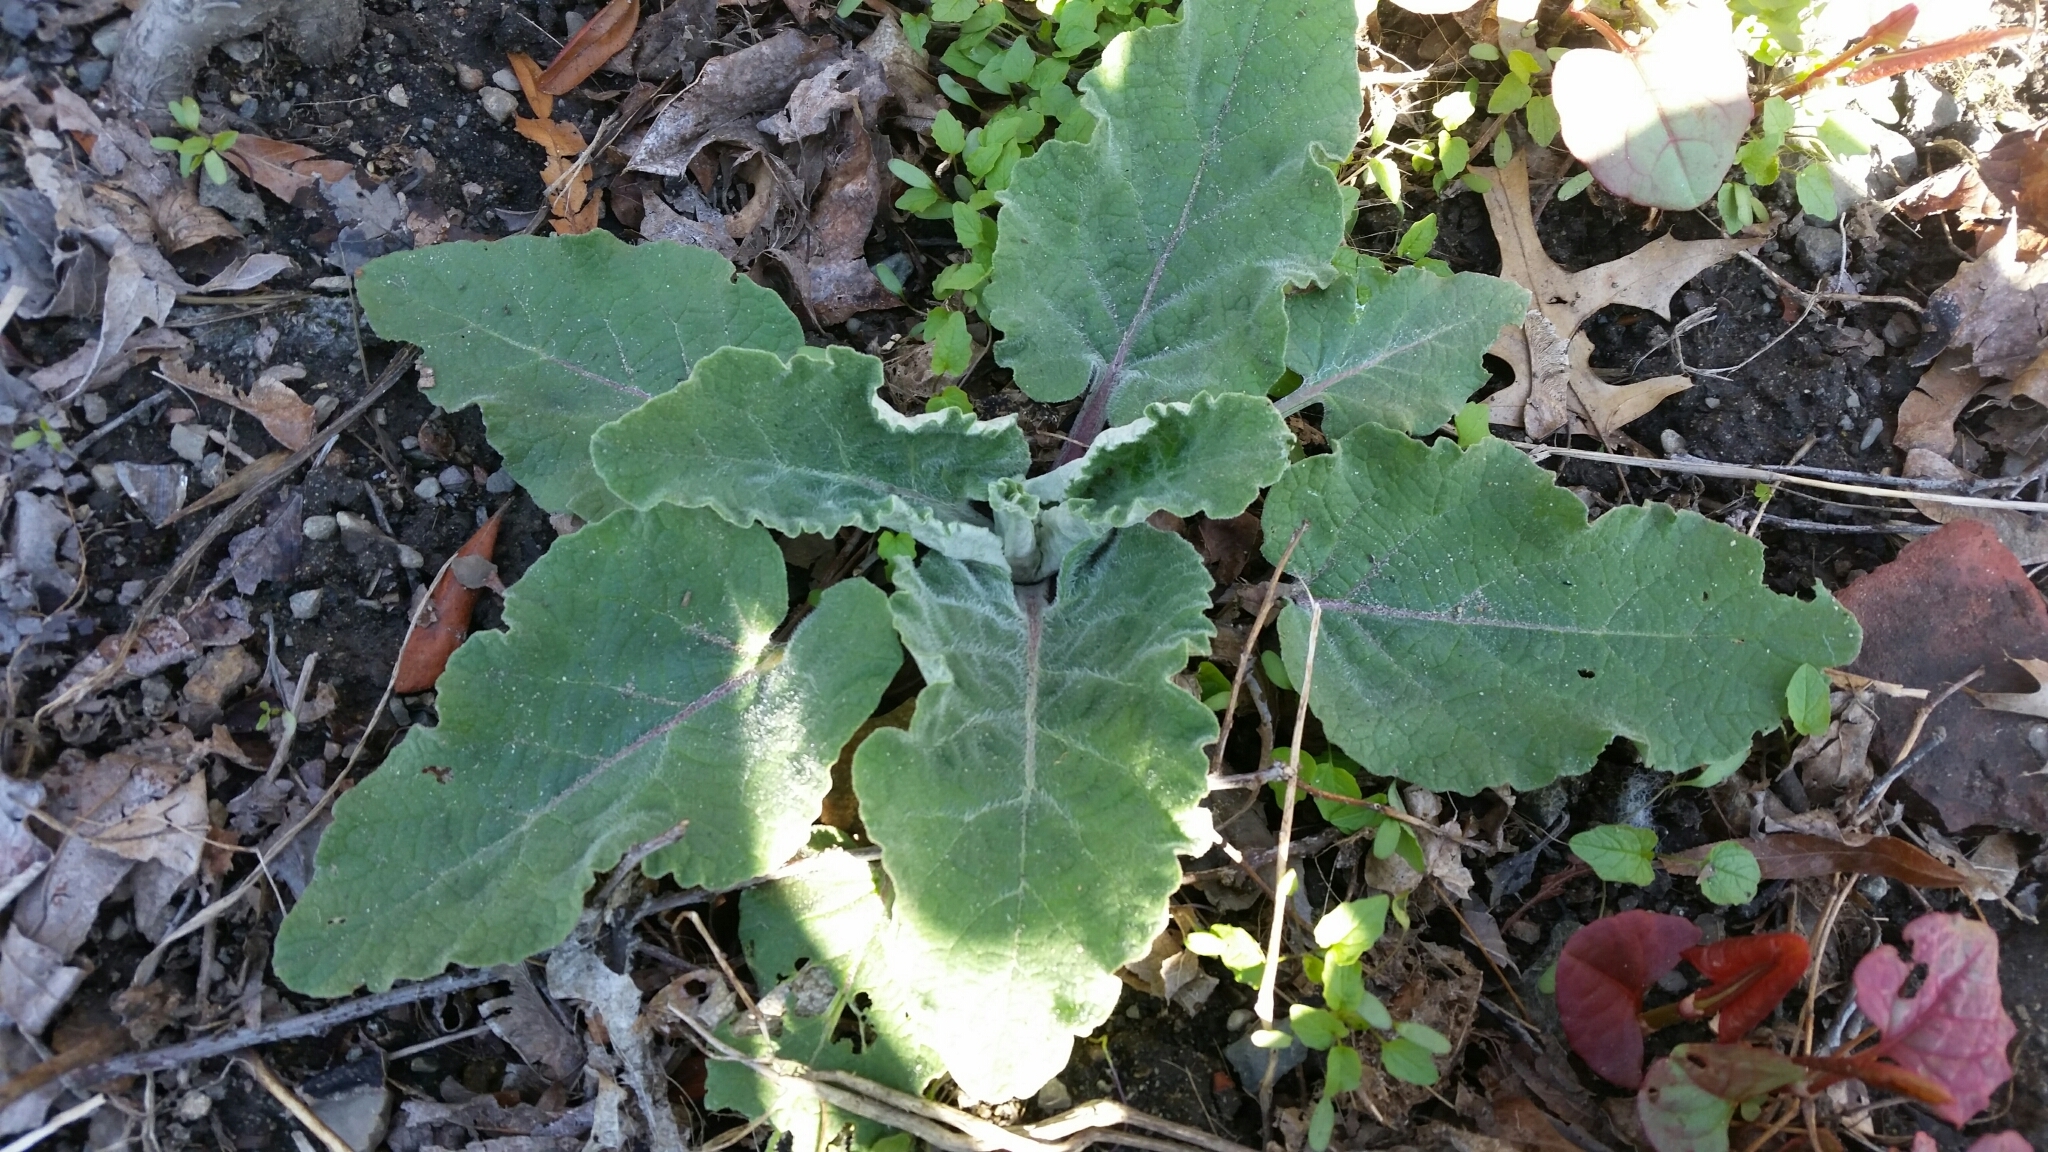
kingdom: Plantae
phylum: Tracheophyta
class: Magnoliopsida
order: Asterales
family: Asteraceae
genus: Arctium
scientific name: Arctium
